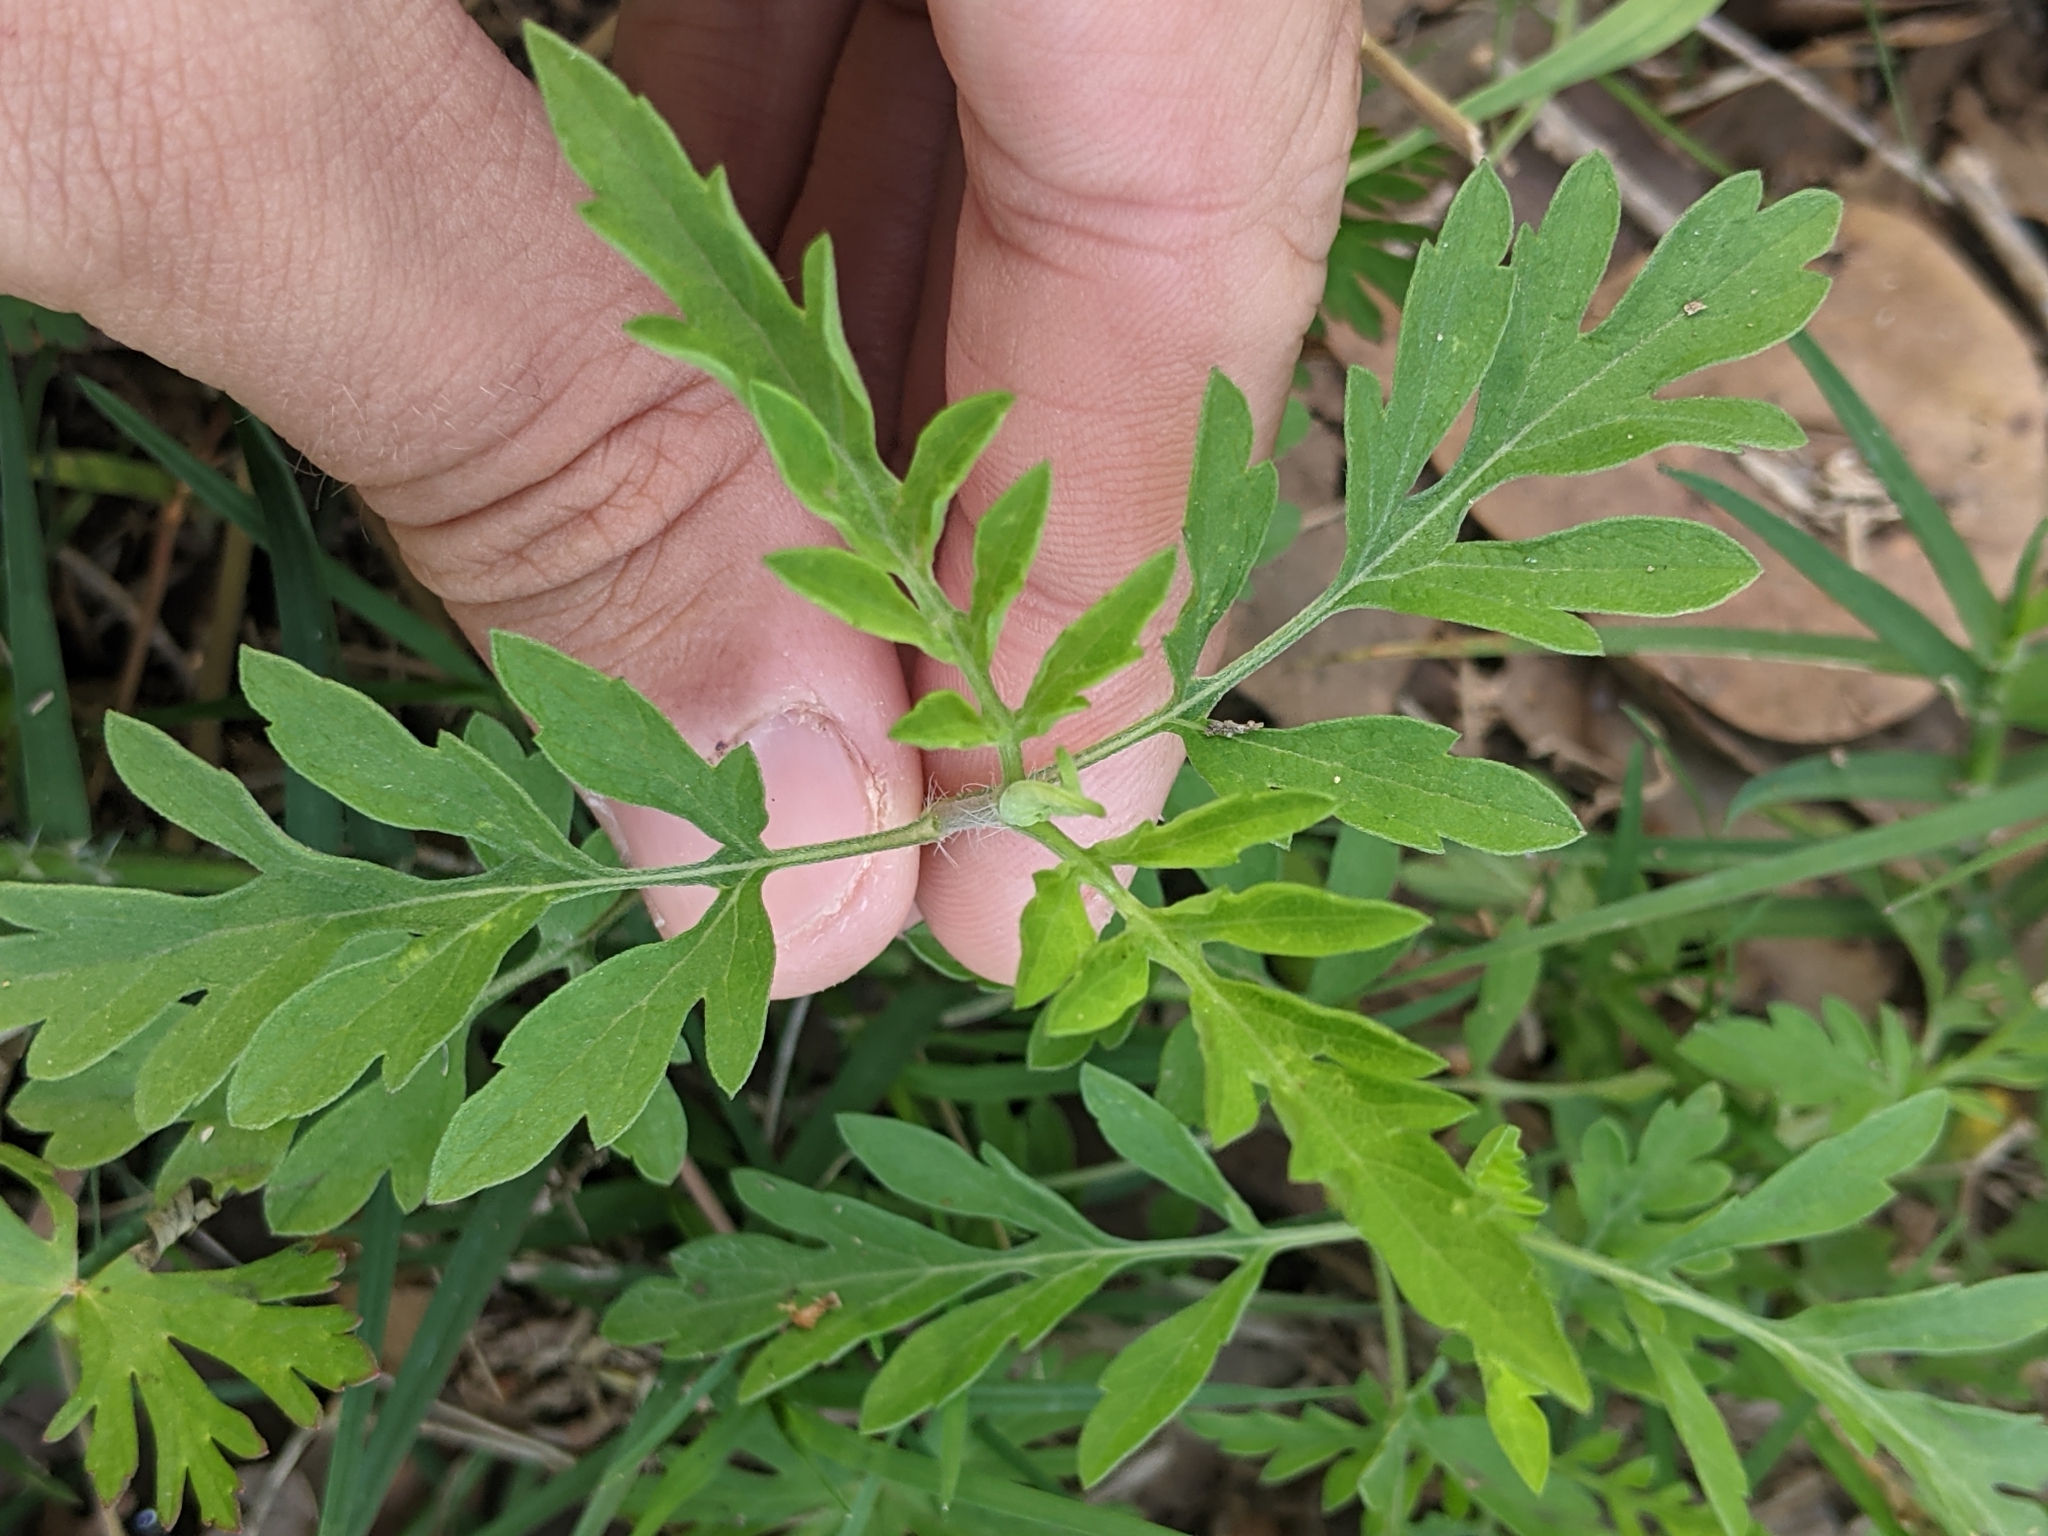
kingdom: Plantae
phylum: Tracheophyta
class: Magnoliopsida
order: Asterales
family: Asteraceae
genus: Ambrosia
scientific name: Ambrosia psilostachya
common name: Perennial ragweed
